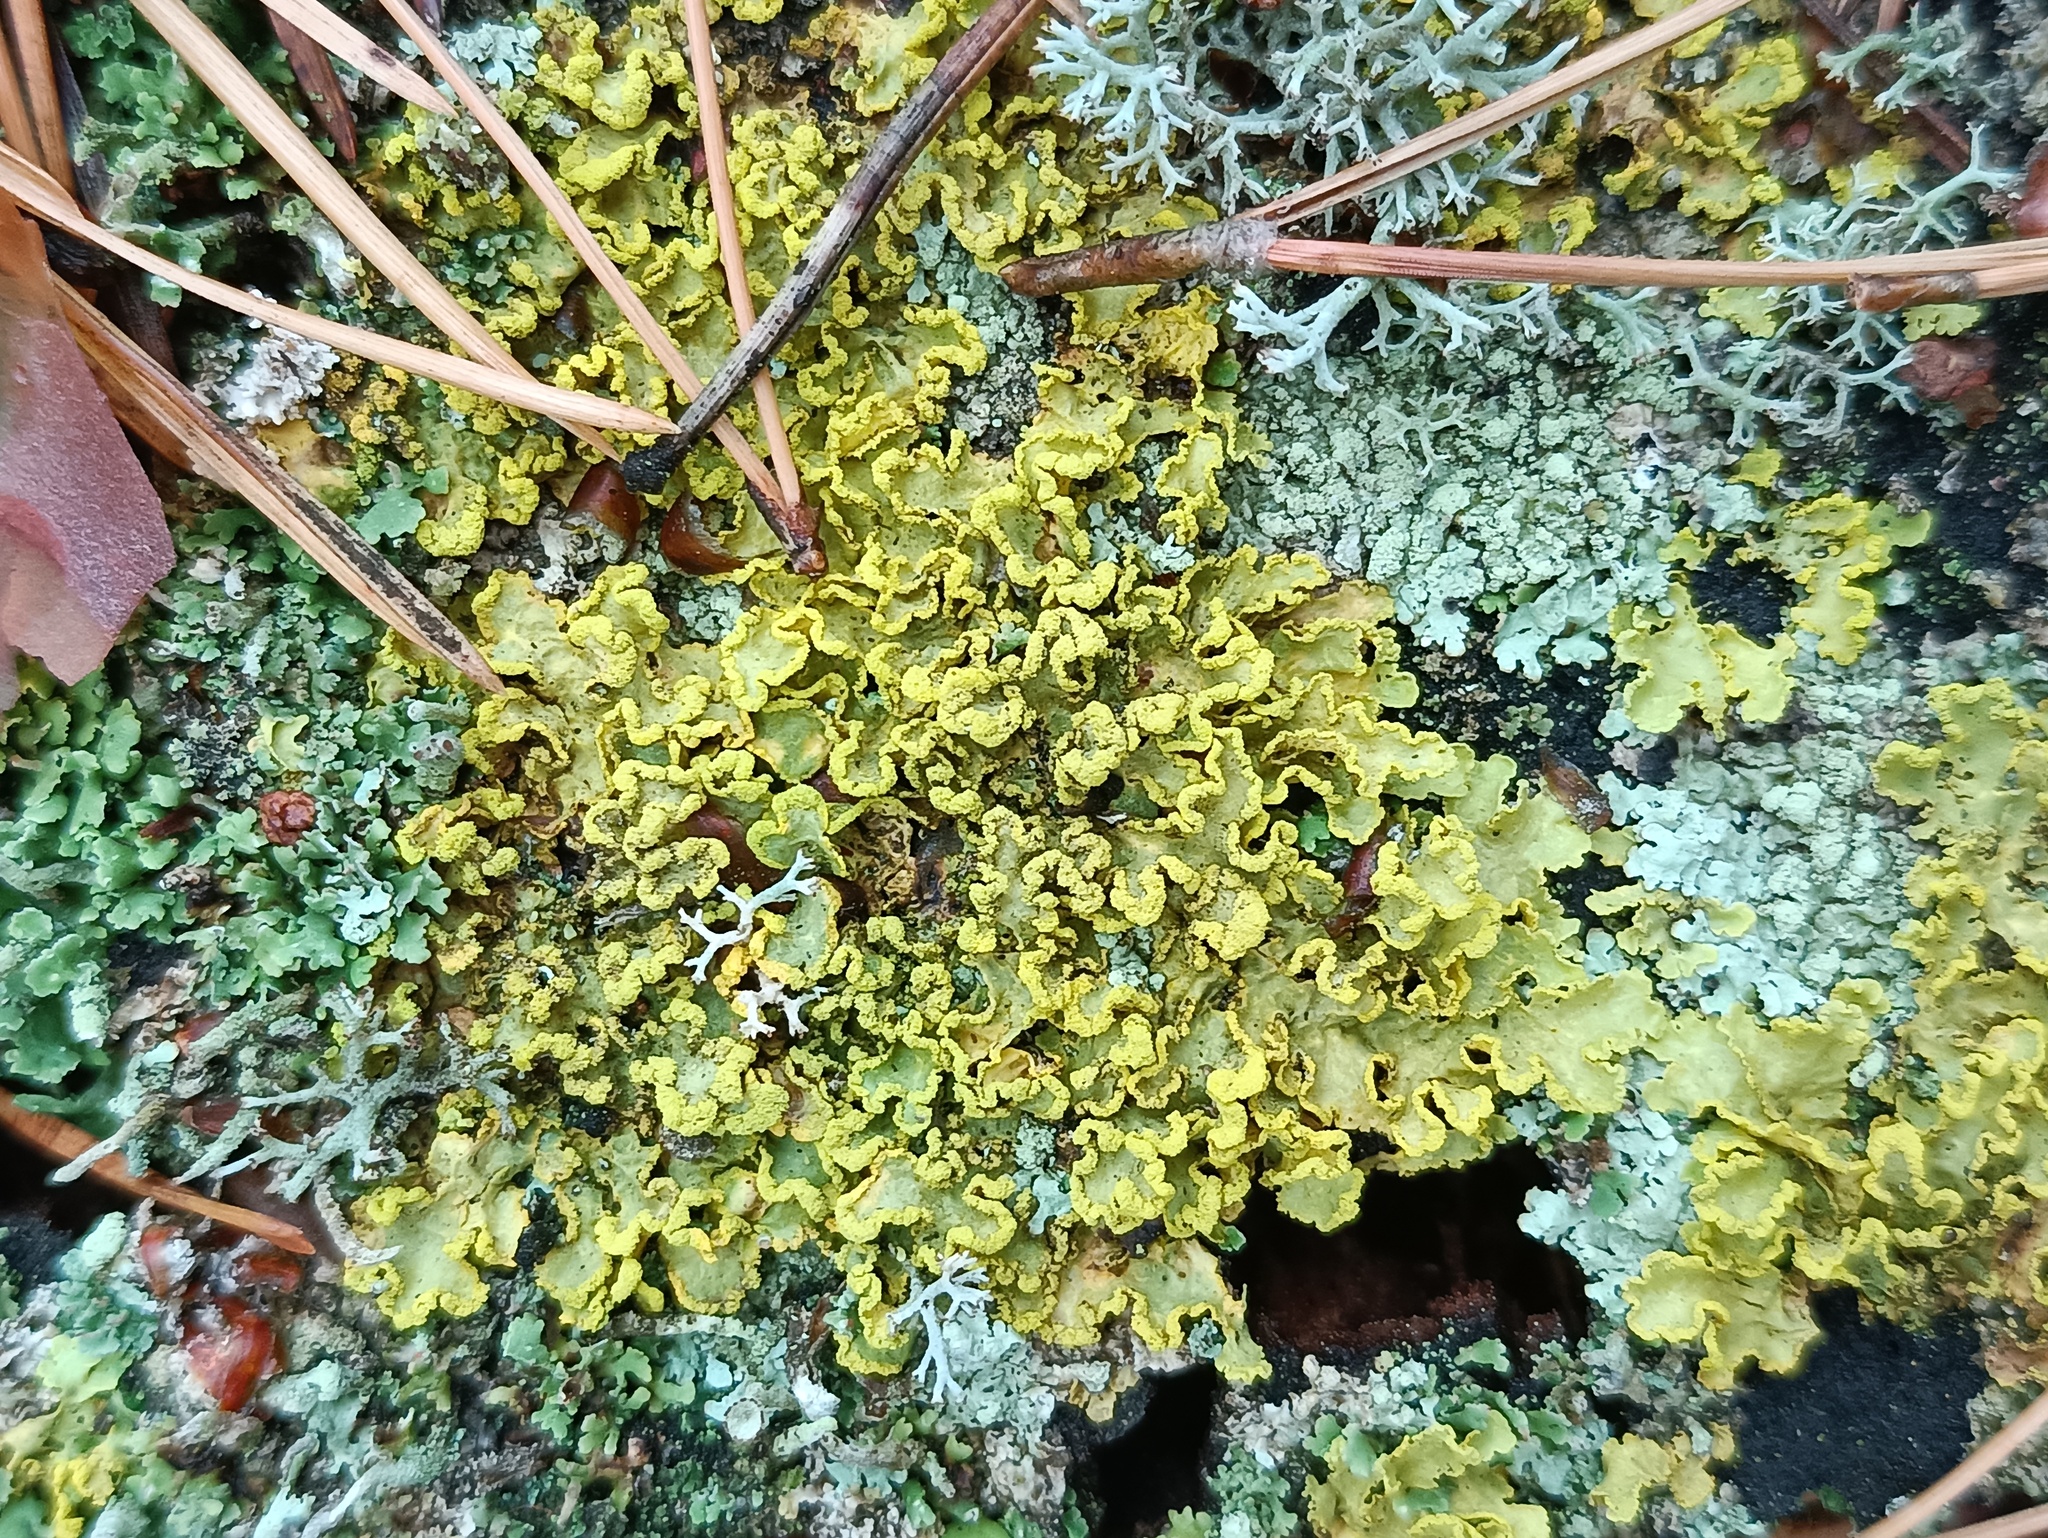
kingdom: Fungi
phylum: Ascomycota
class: Lecanoromycetes
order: Lecanorales
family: Parmeliaceae
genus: Vulpicida
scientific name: Vulpicida pinastri
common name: Powdered sunshine lichen
